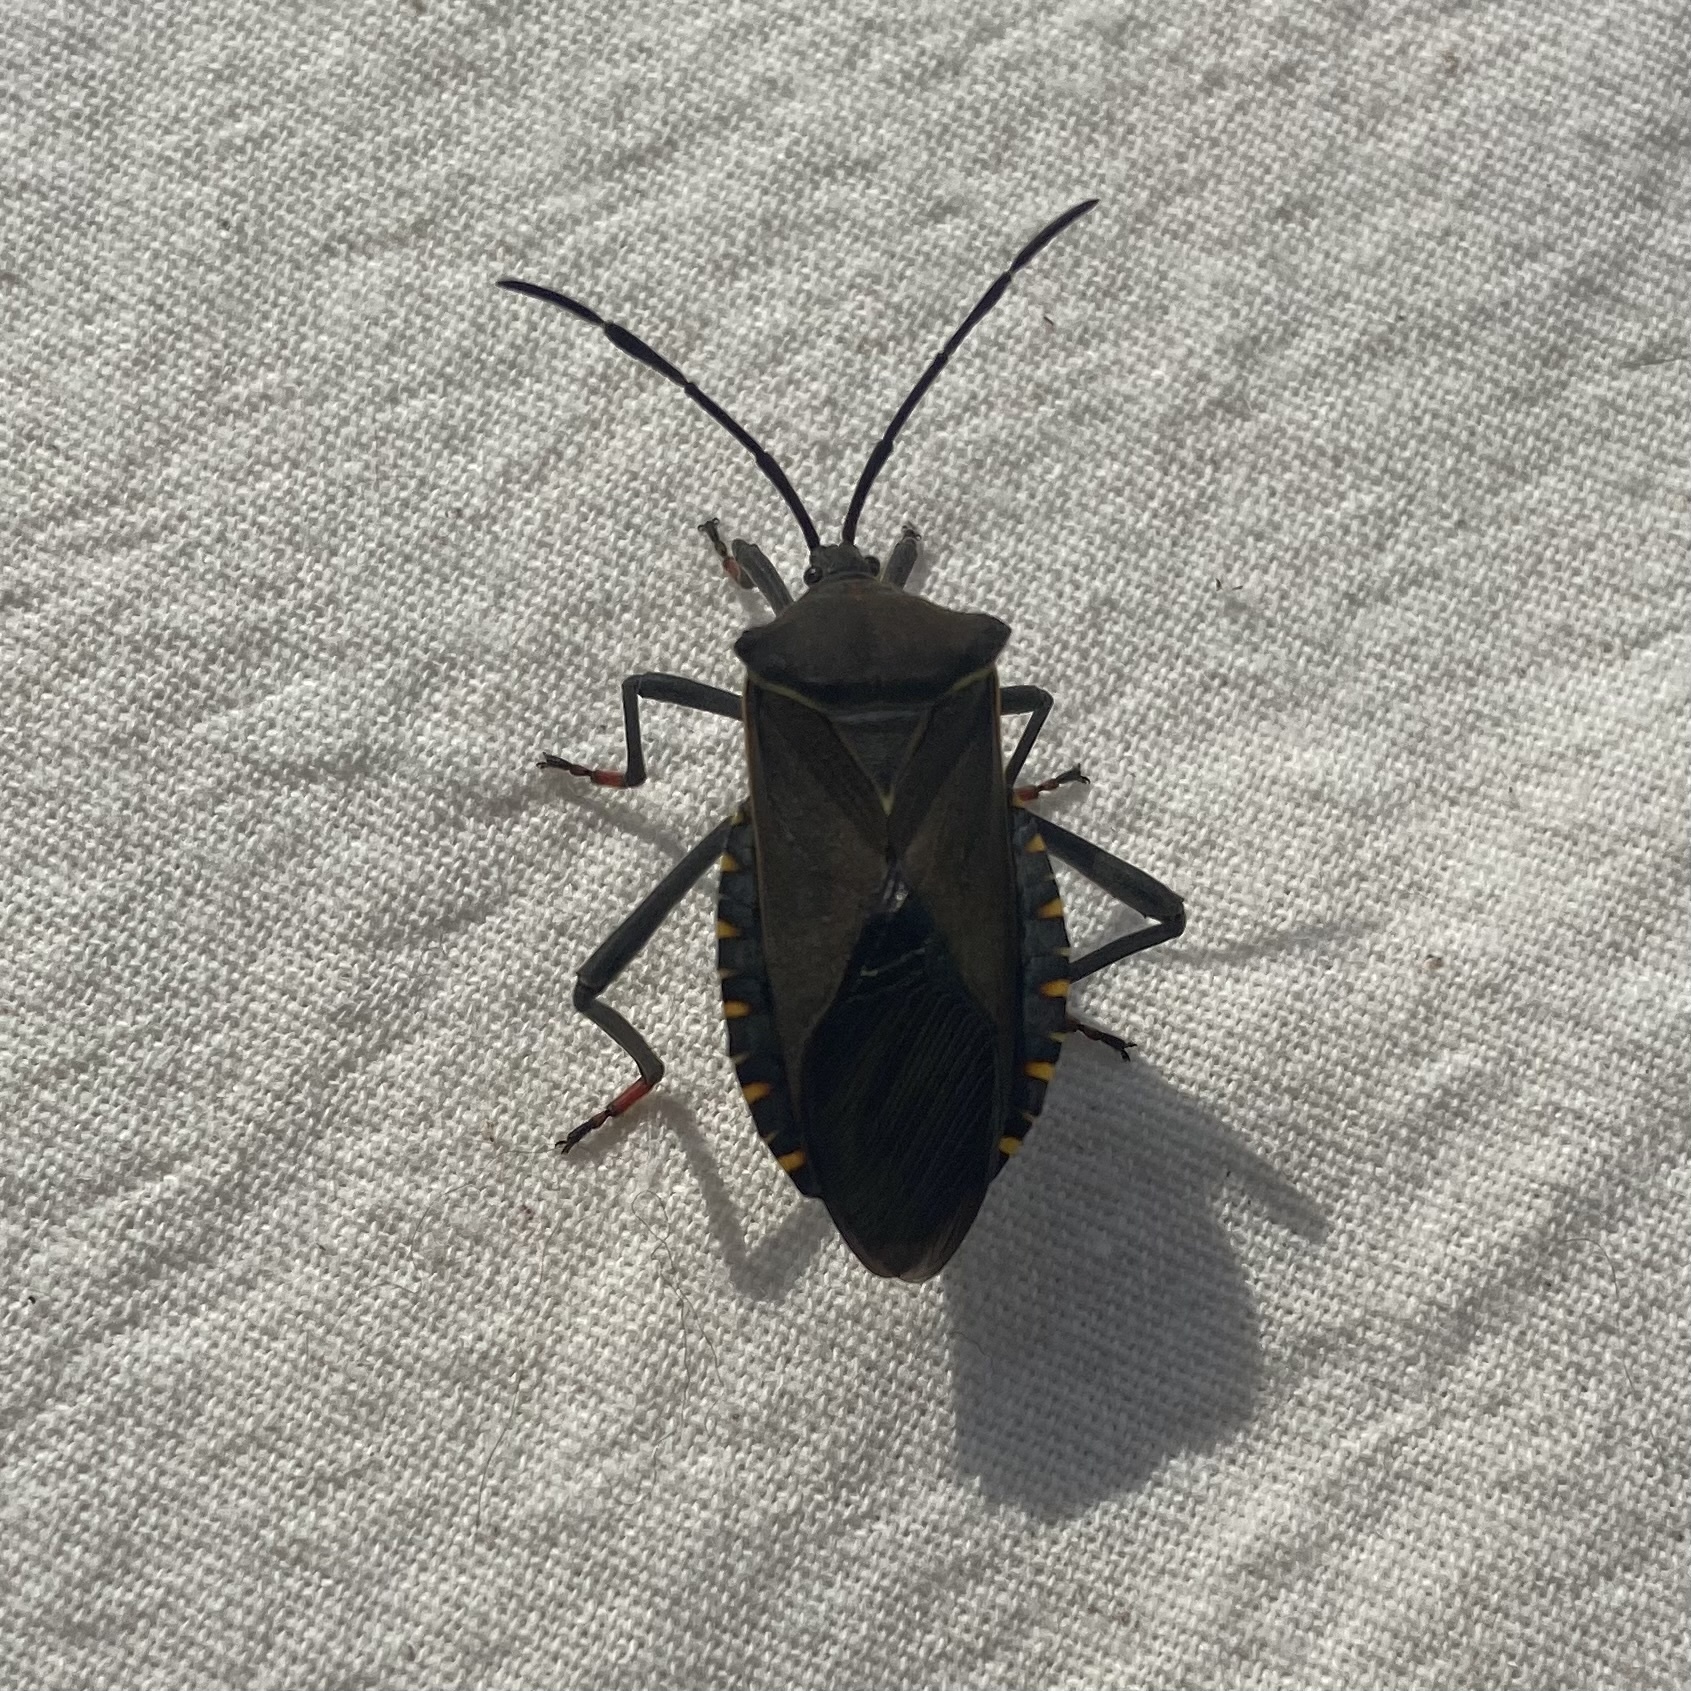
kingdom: Animalia
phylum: Arthropoda
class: Insecta
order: Hemiptera
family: Coreidae
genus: Pachylis
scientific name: Pachylis argentinus
